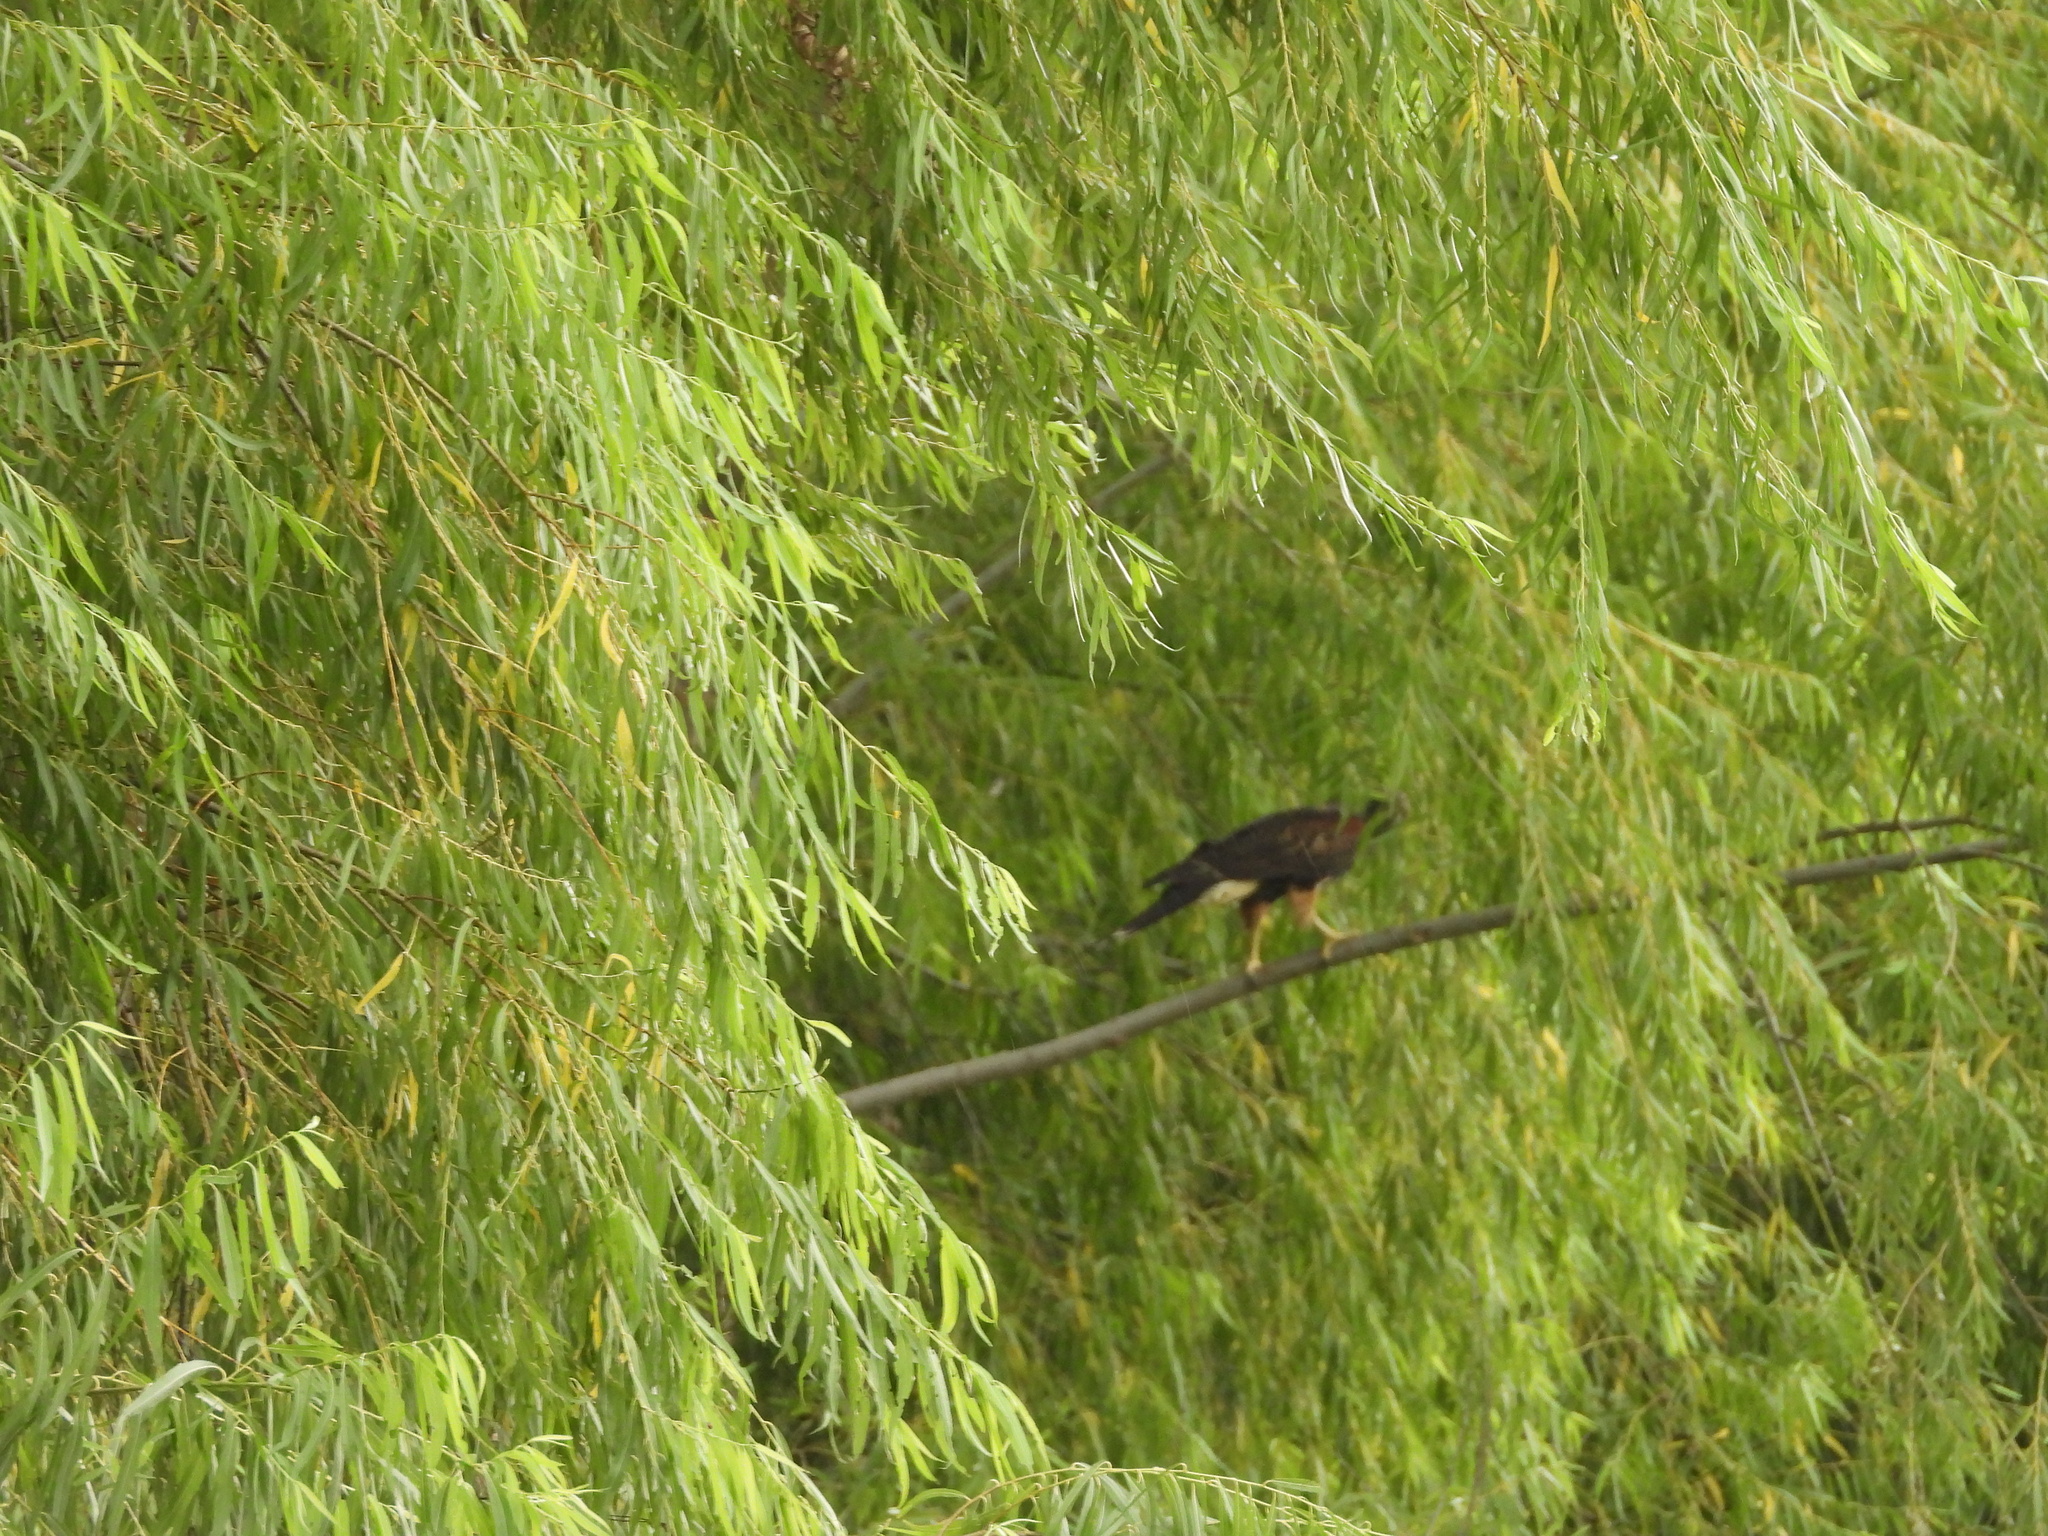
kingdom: Animalia
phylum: Chordata
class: Aves
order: Accipitriformes
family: Accipitridae
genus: Parabuteo
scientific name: Parabuteo unicinctus
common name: Harris's hawk
